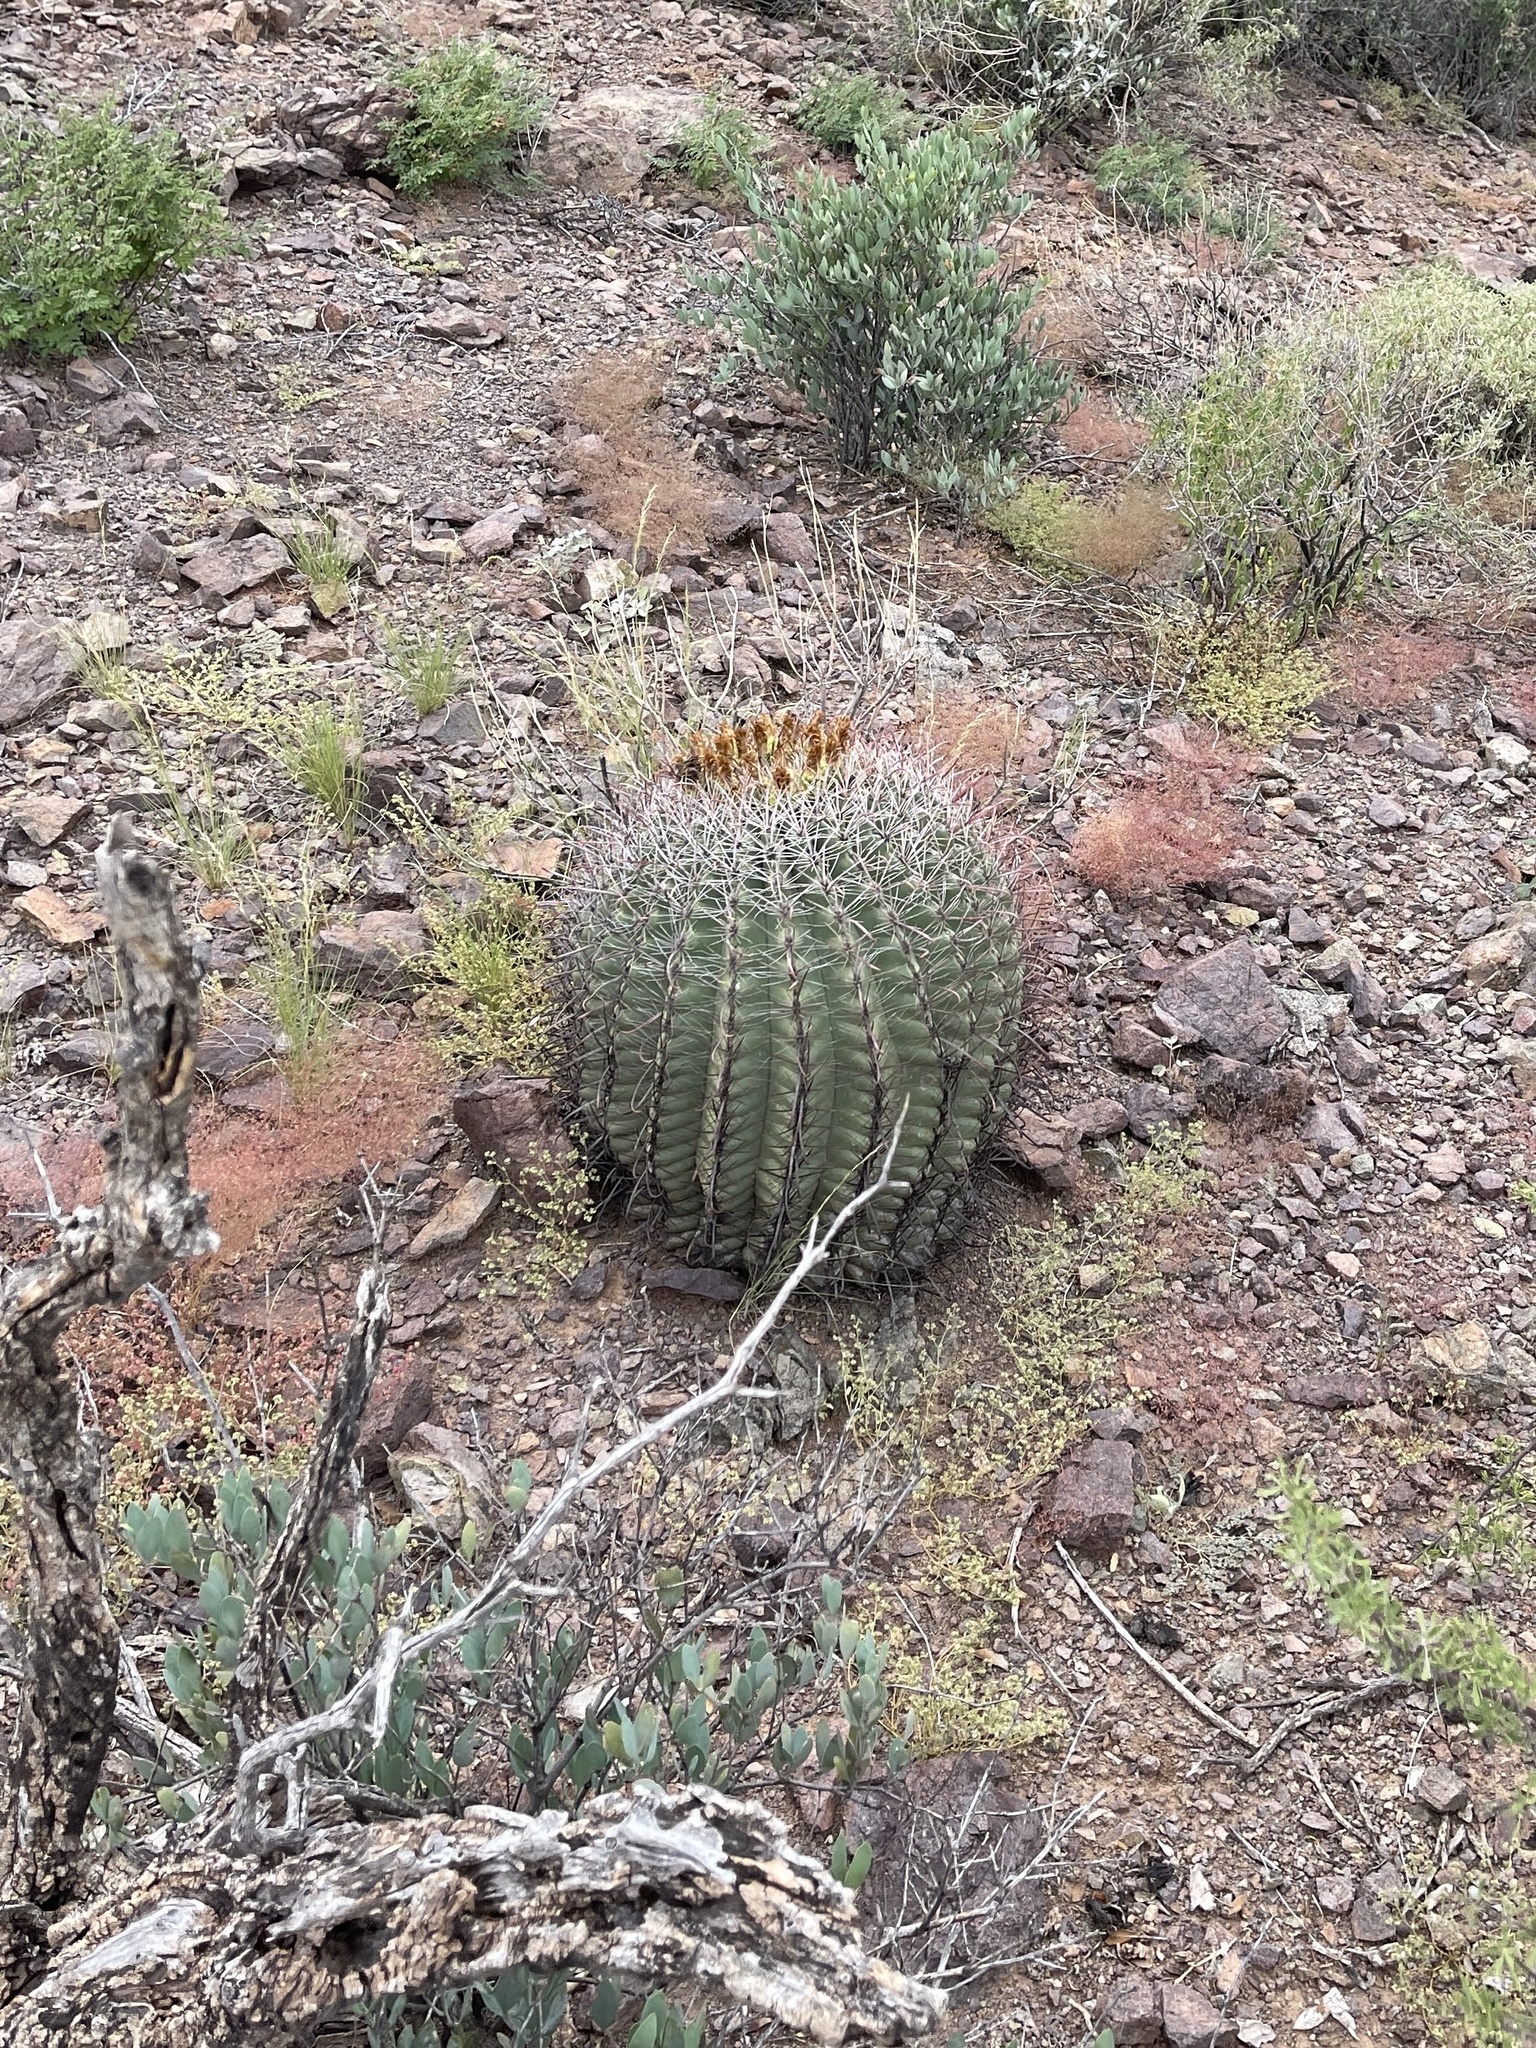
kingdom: Plantae
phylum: Tracheophyta
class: Magnoliopsida
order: Caryophyllales
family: Cactaceae
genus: Ferocactus
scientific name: Ferocactus wislizeni
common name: Candy barrel cactus
